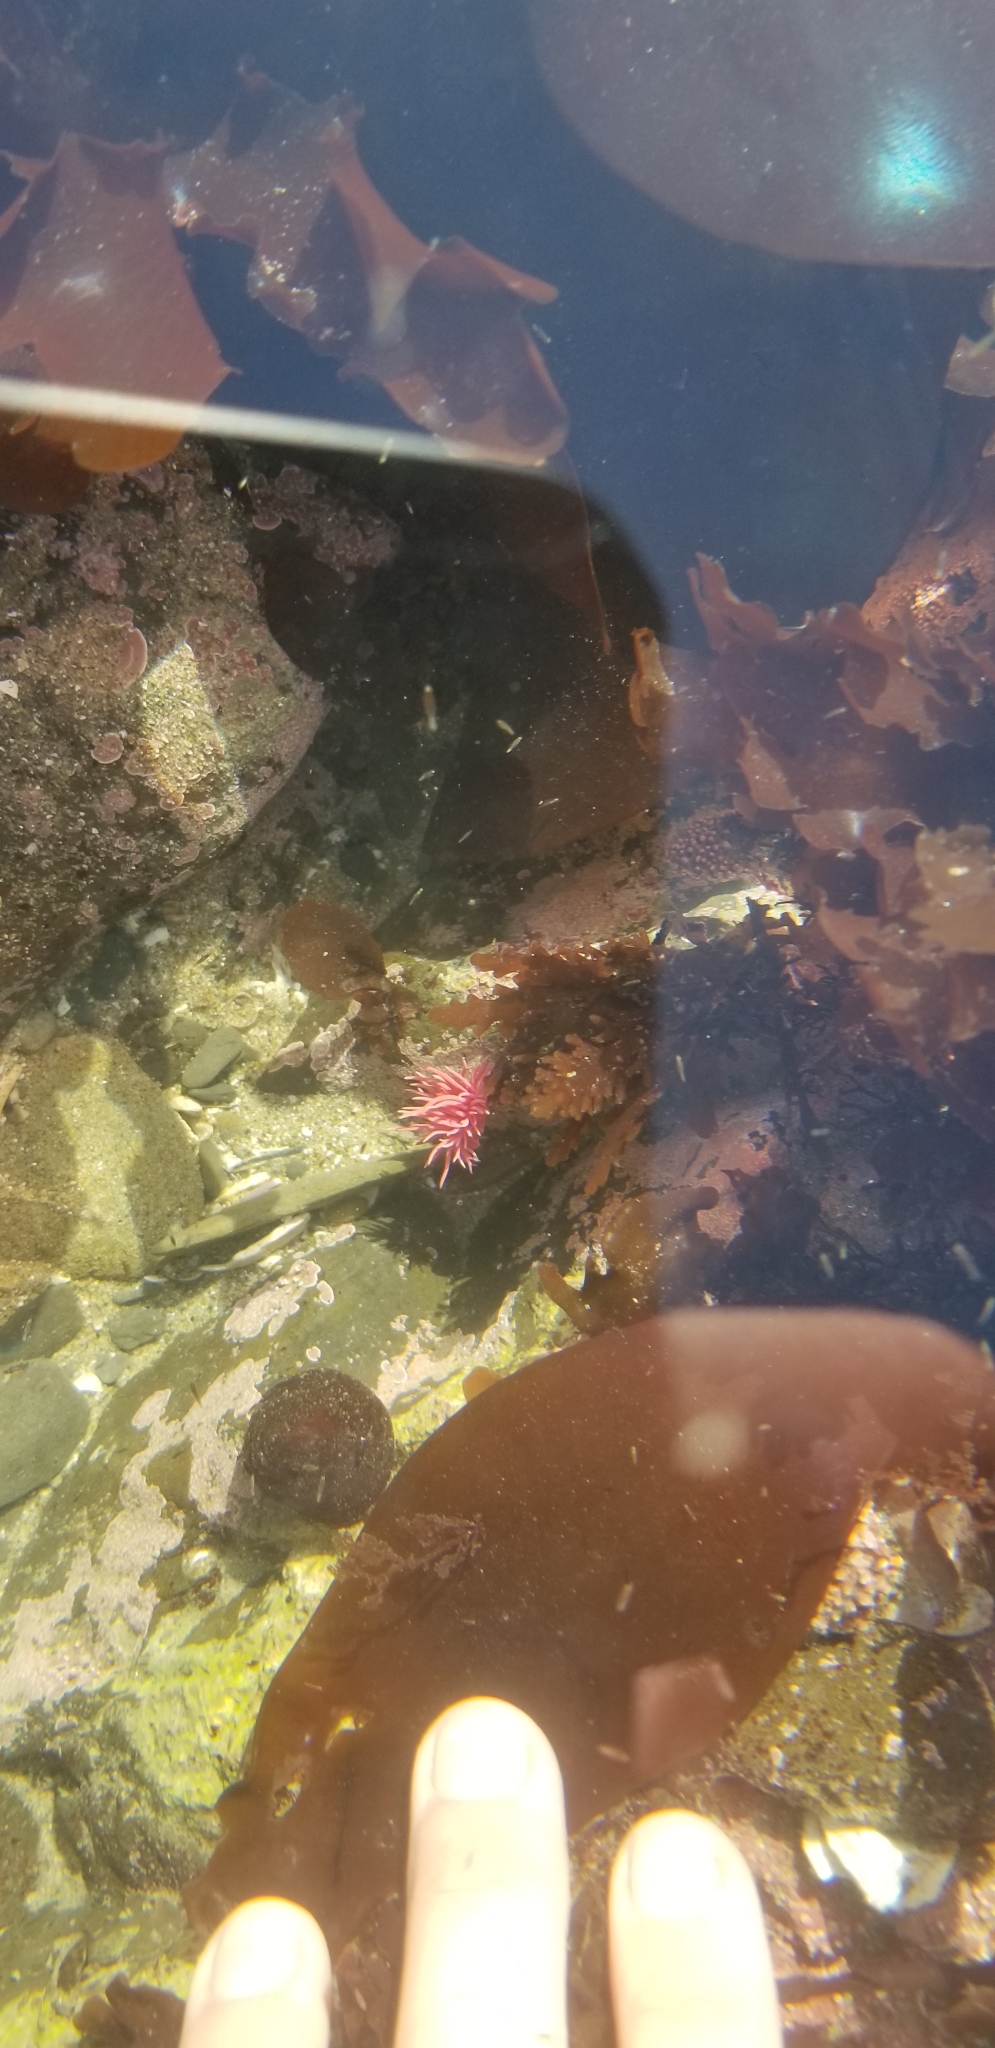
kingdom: Animalia
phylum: Mollusca
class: Gastropoda
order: Nudibranchia
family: Goniodorididae
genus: Okenia
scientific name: Okenia
